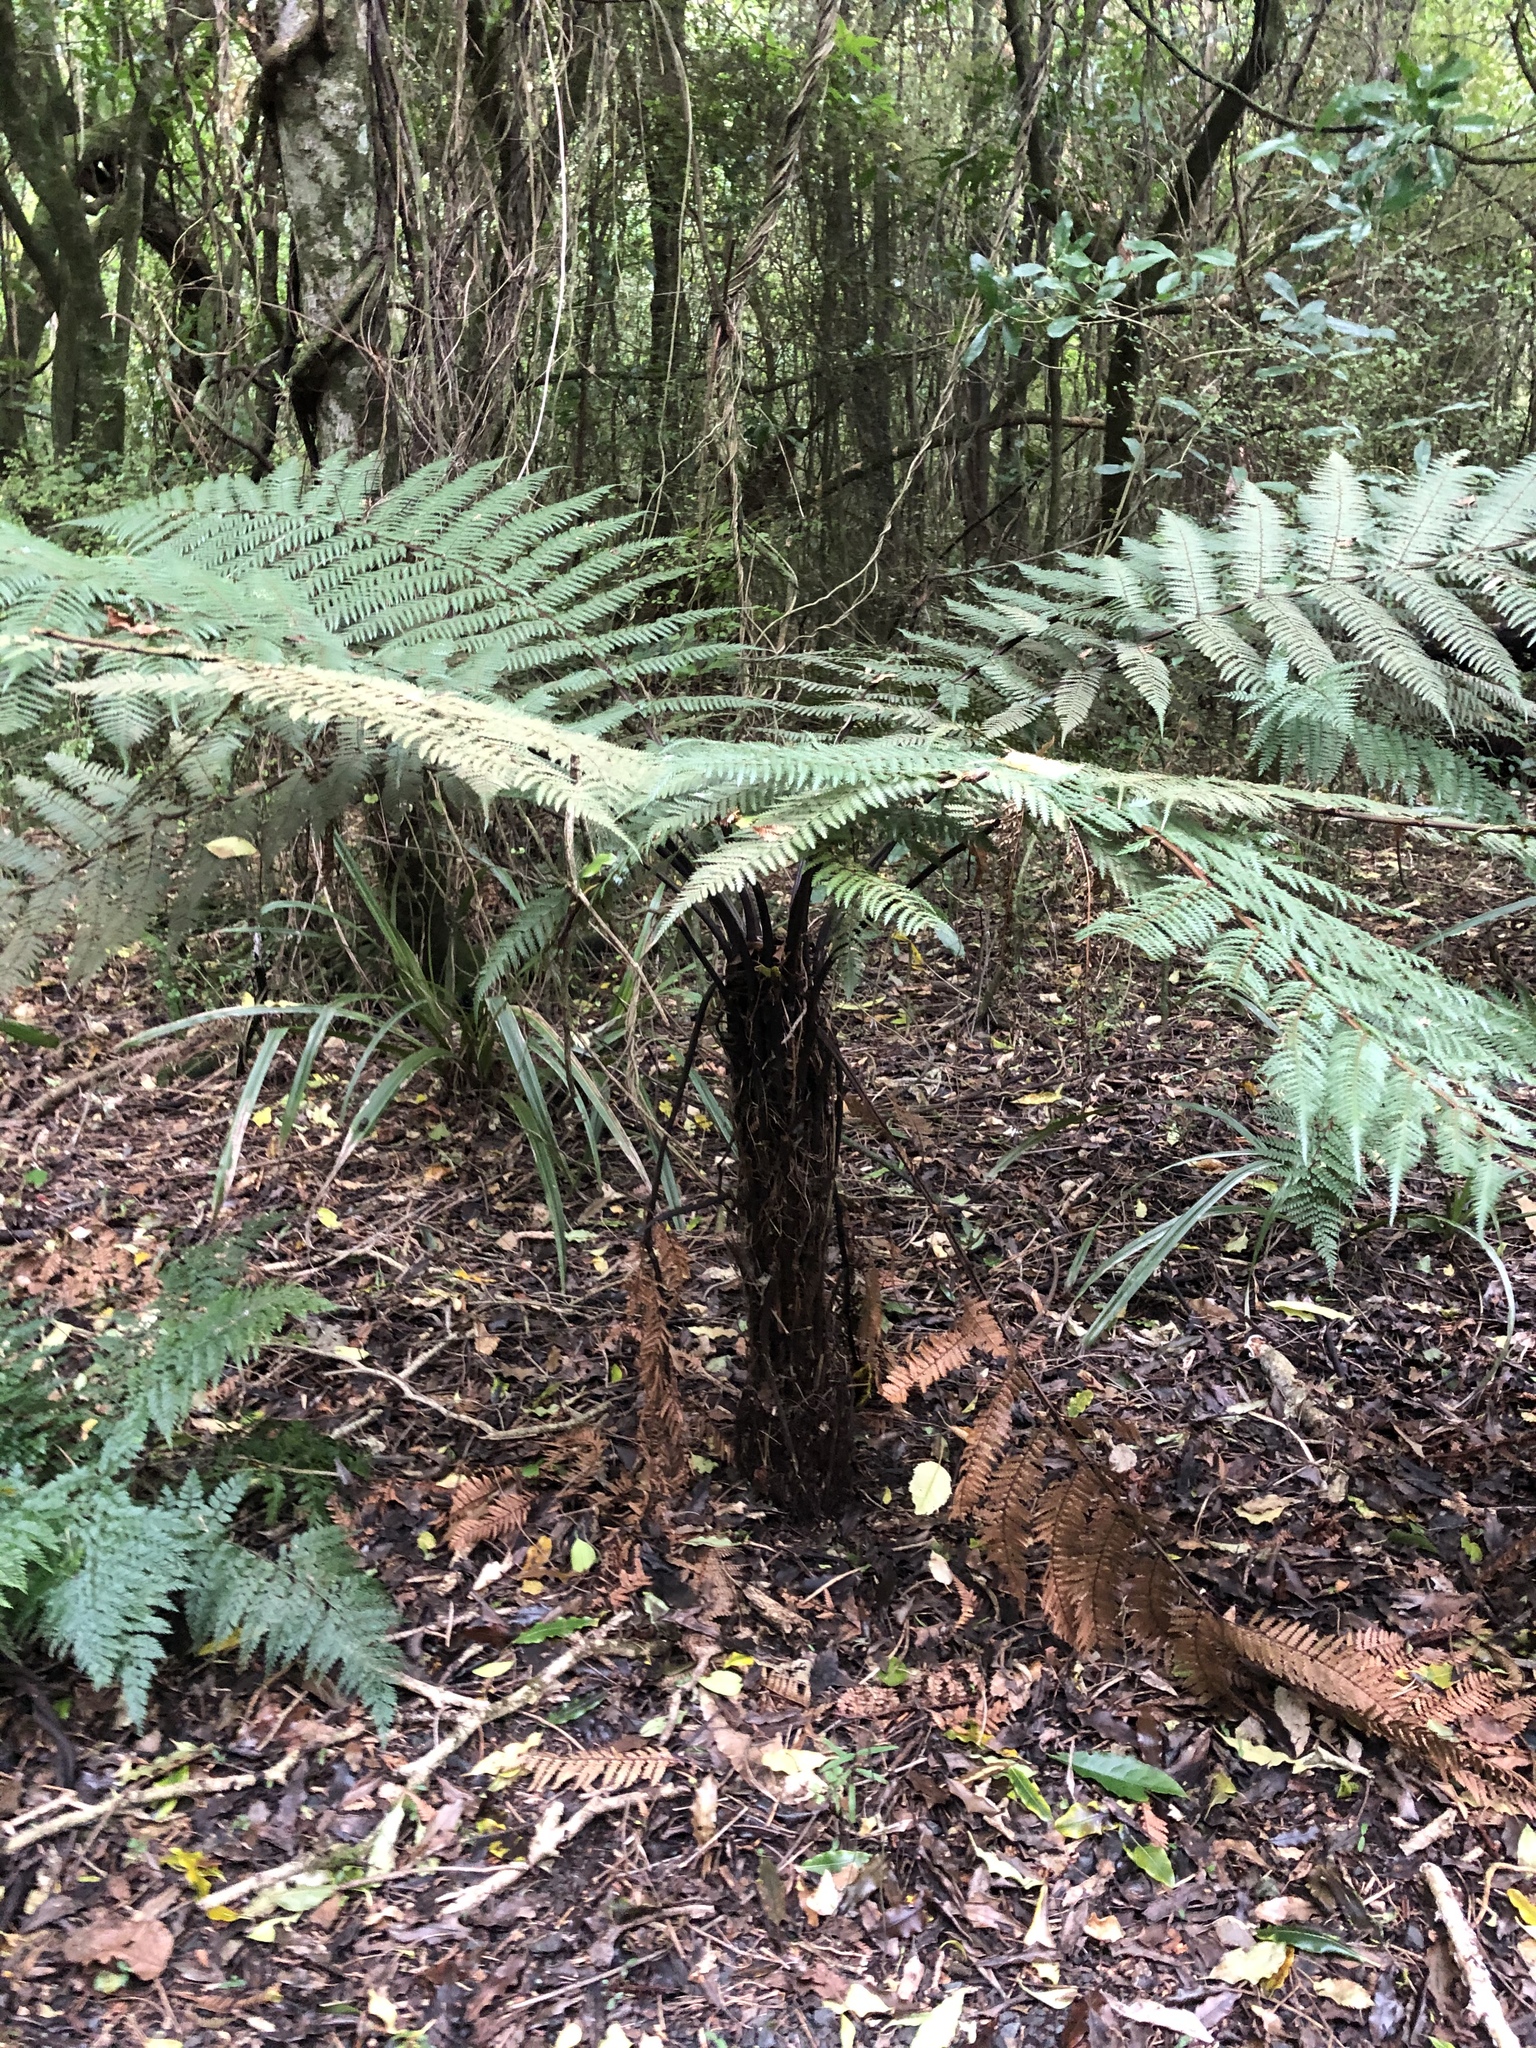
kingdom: Plantae
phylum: Tracheophyta
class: Polypodiopsida
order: Cyatheales
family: Dicksoniaceae
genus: Dicksonia
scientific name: Dicksonia squarrosa
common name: Hard treefern
